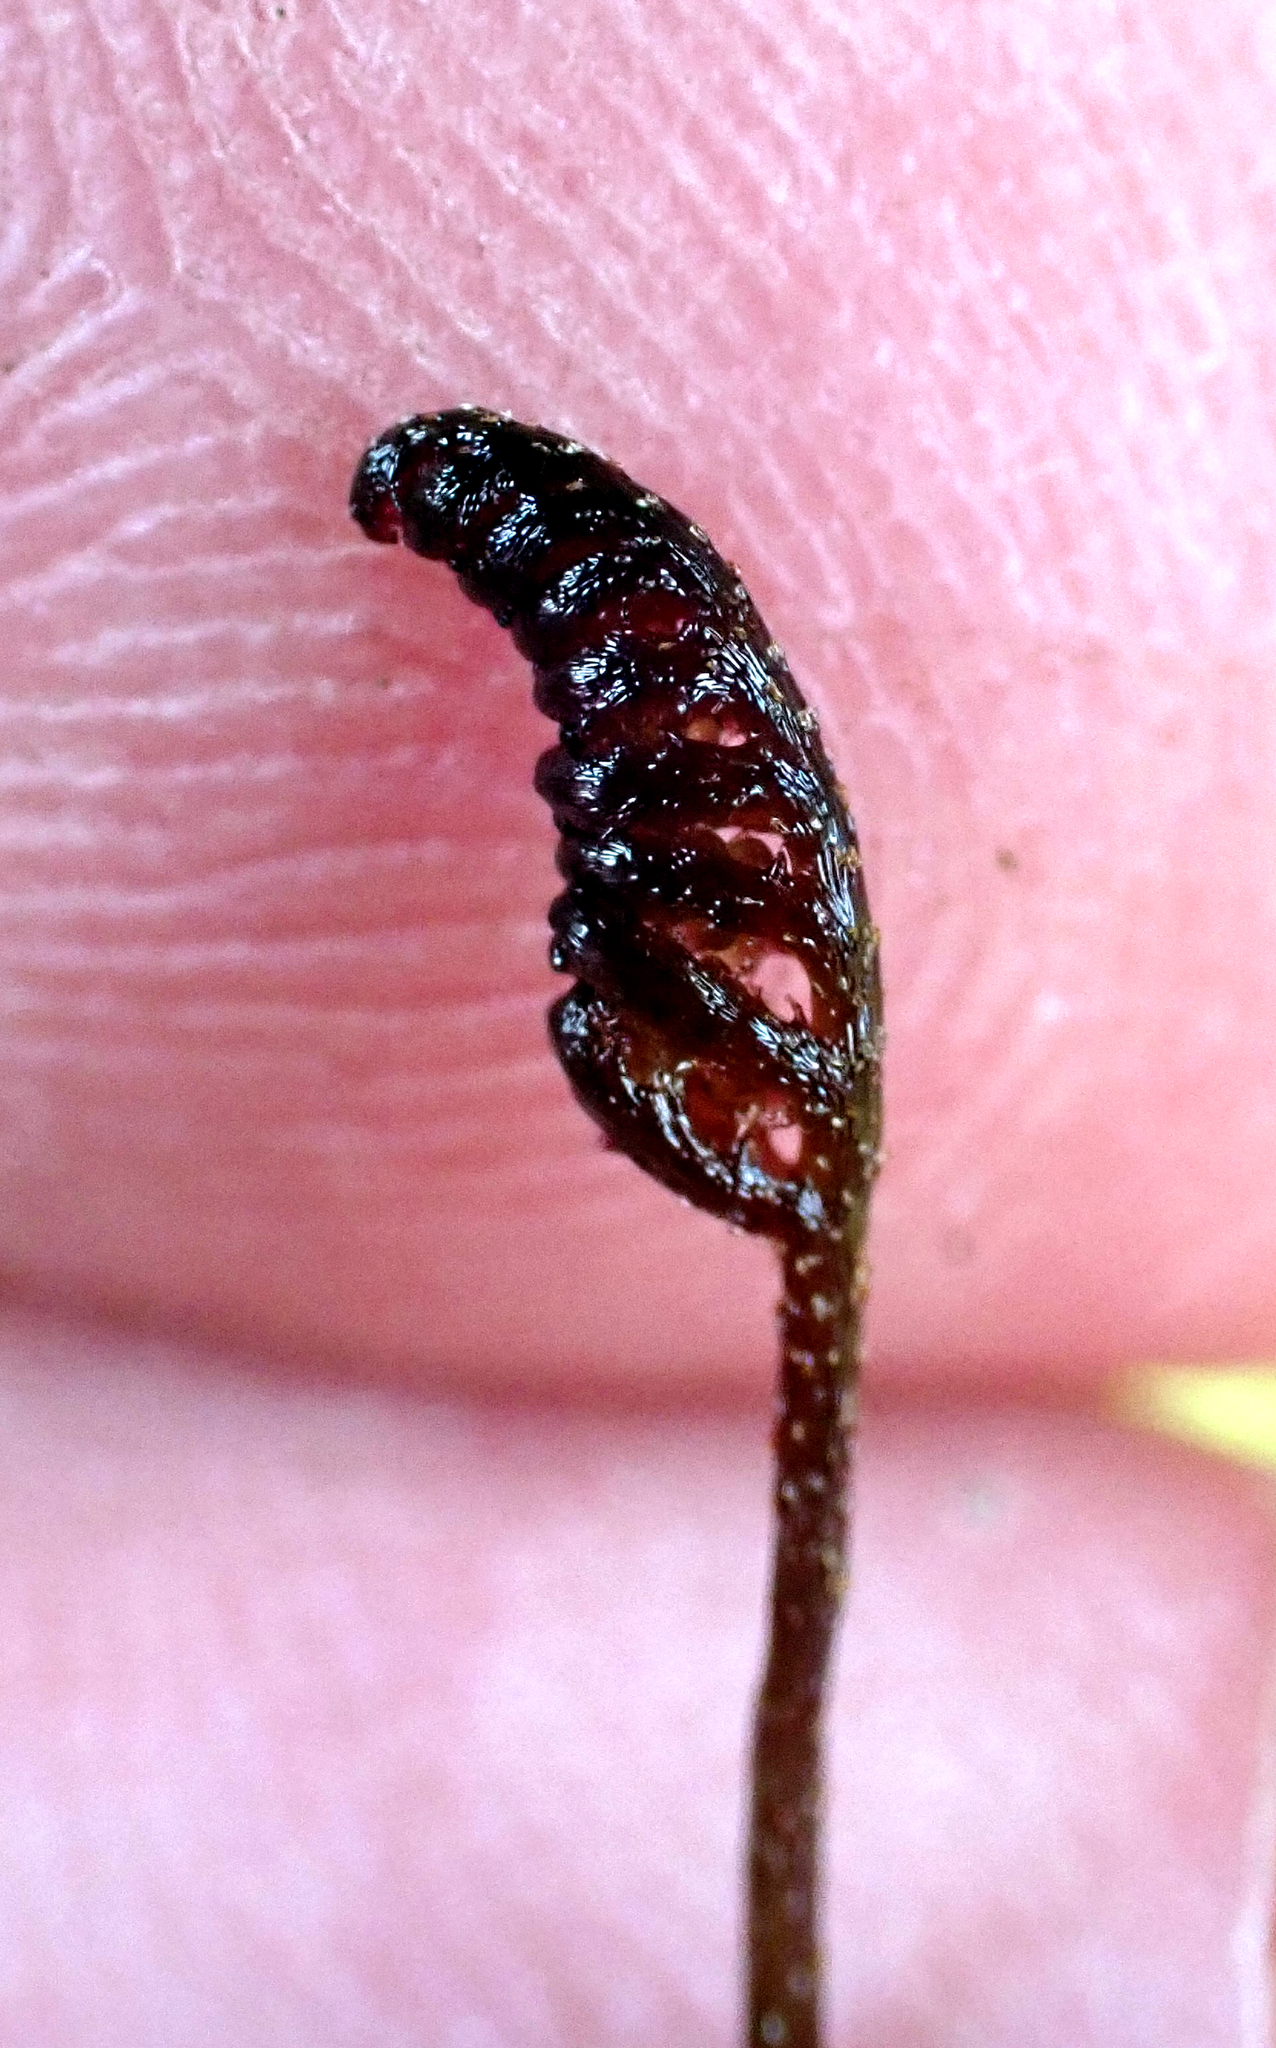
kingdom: Plantae
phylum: Tracheophyta
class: Polypodiopsida
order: Schizaeales
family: Schizaeaceae
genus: Microschizaea
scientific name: Microschizaea australis
